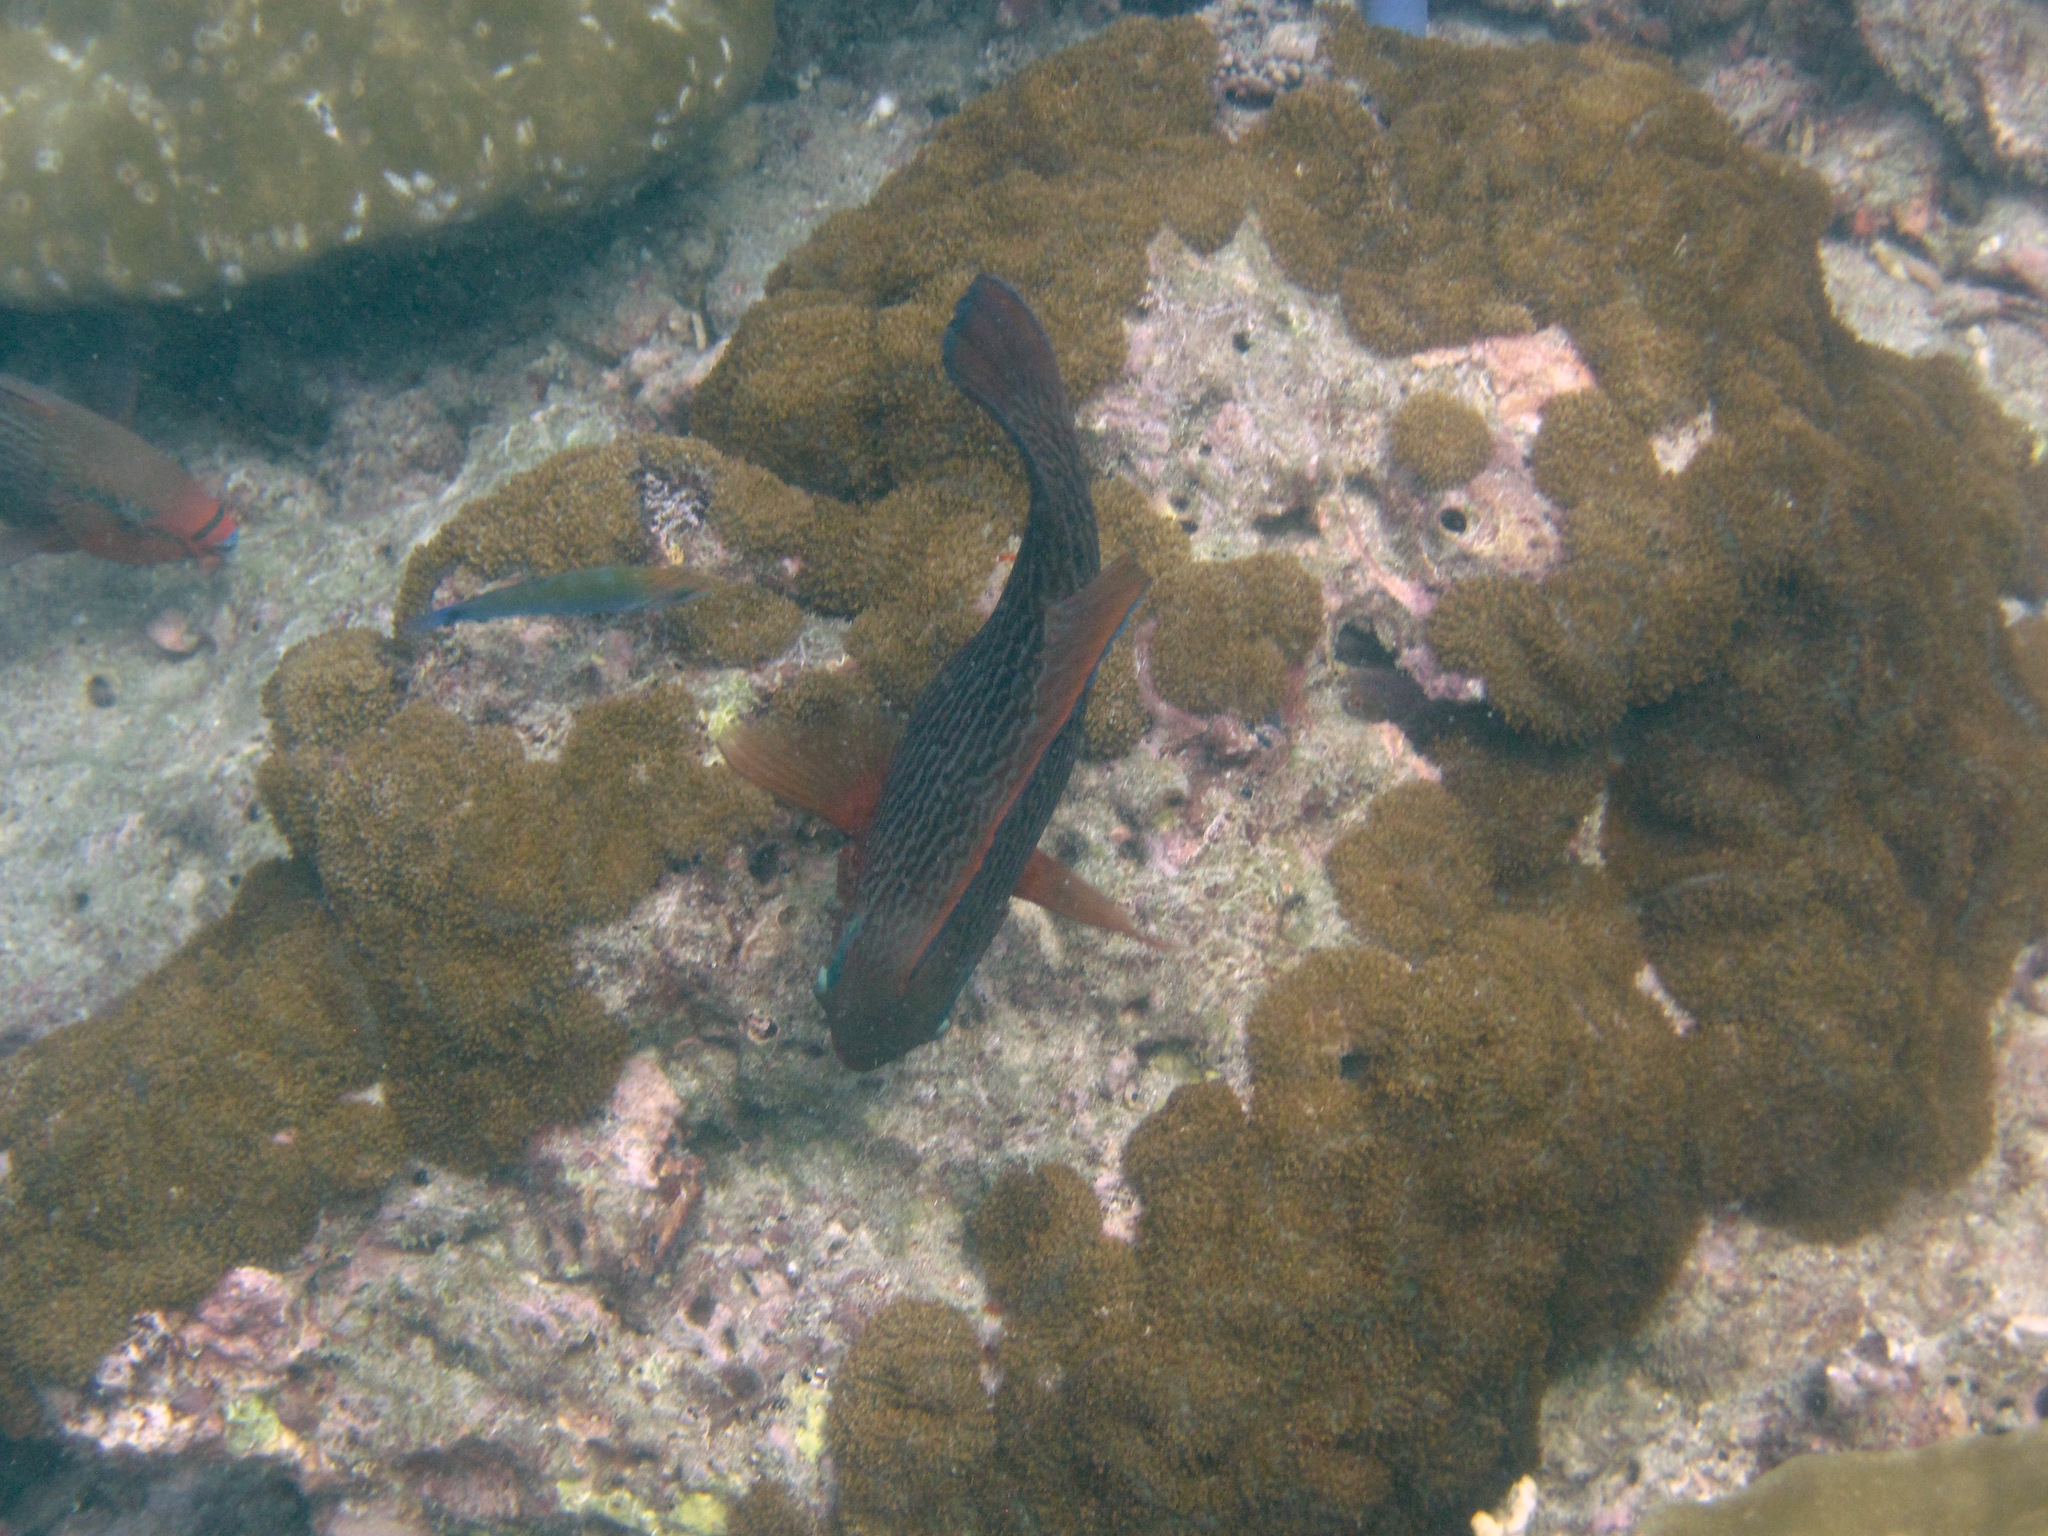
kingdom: Animalia
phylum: Chordata
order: Perciformes
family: Scaridae
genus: Scarus
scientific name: Scarus niger
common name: Dusky parrotfish
